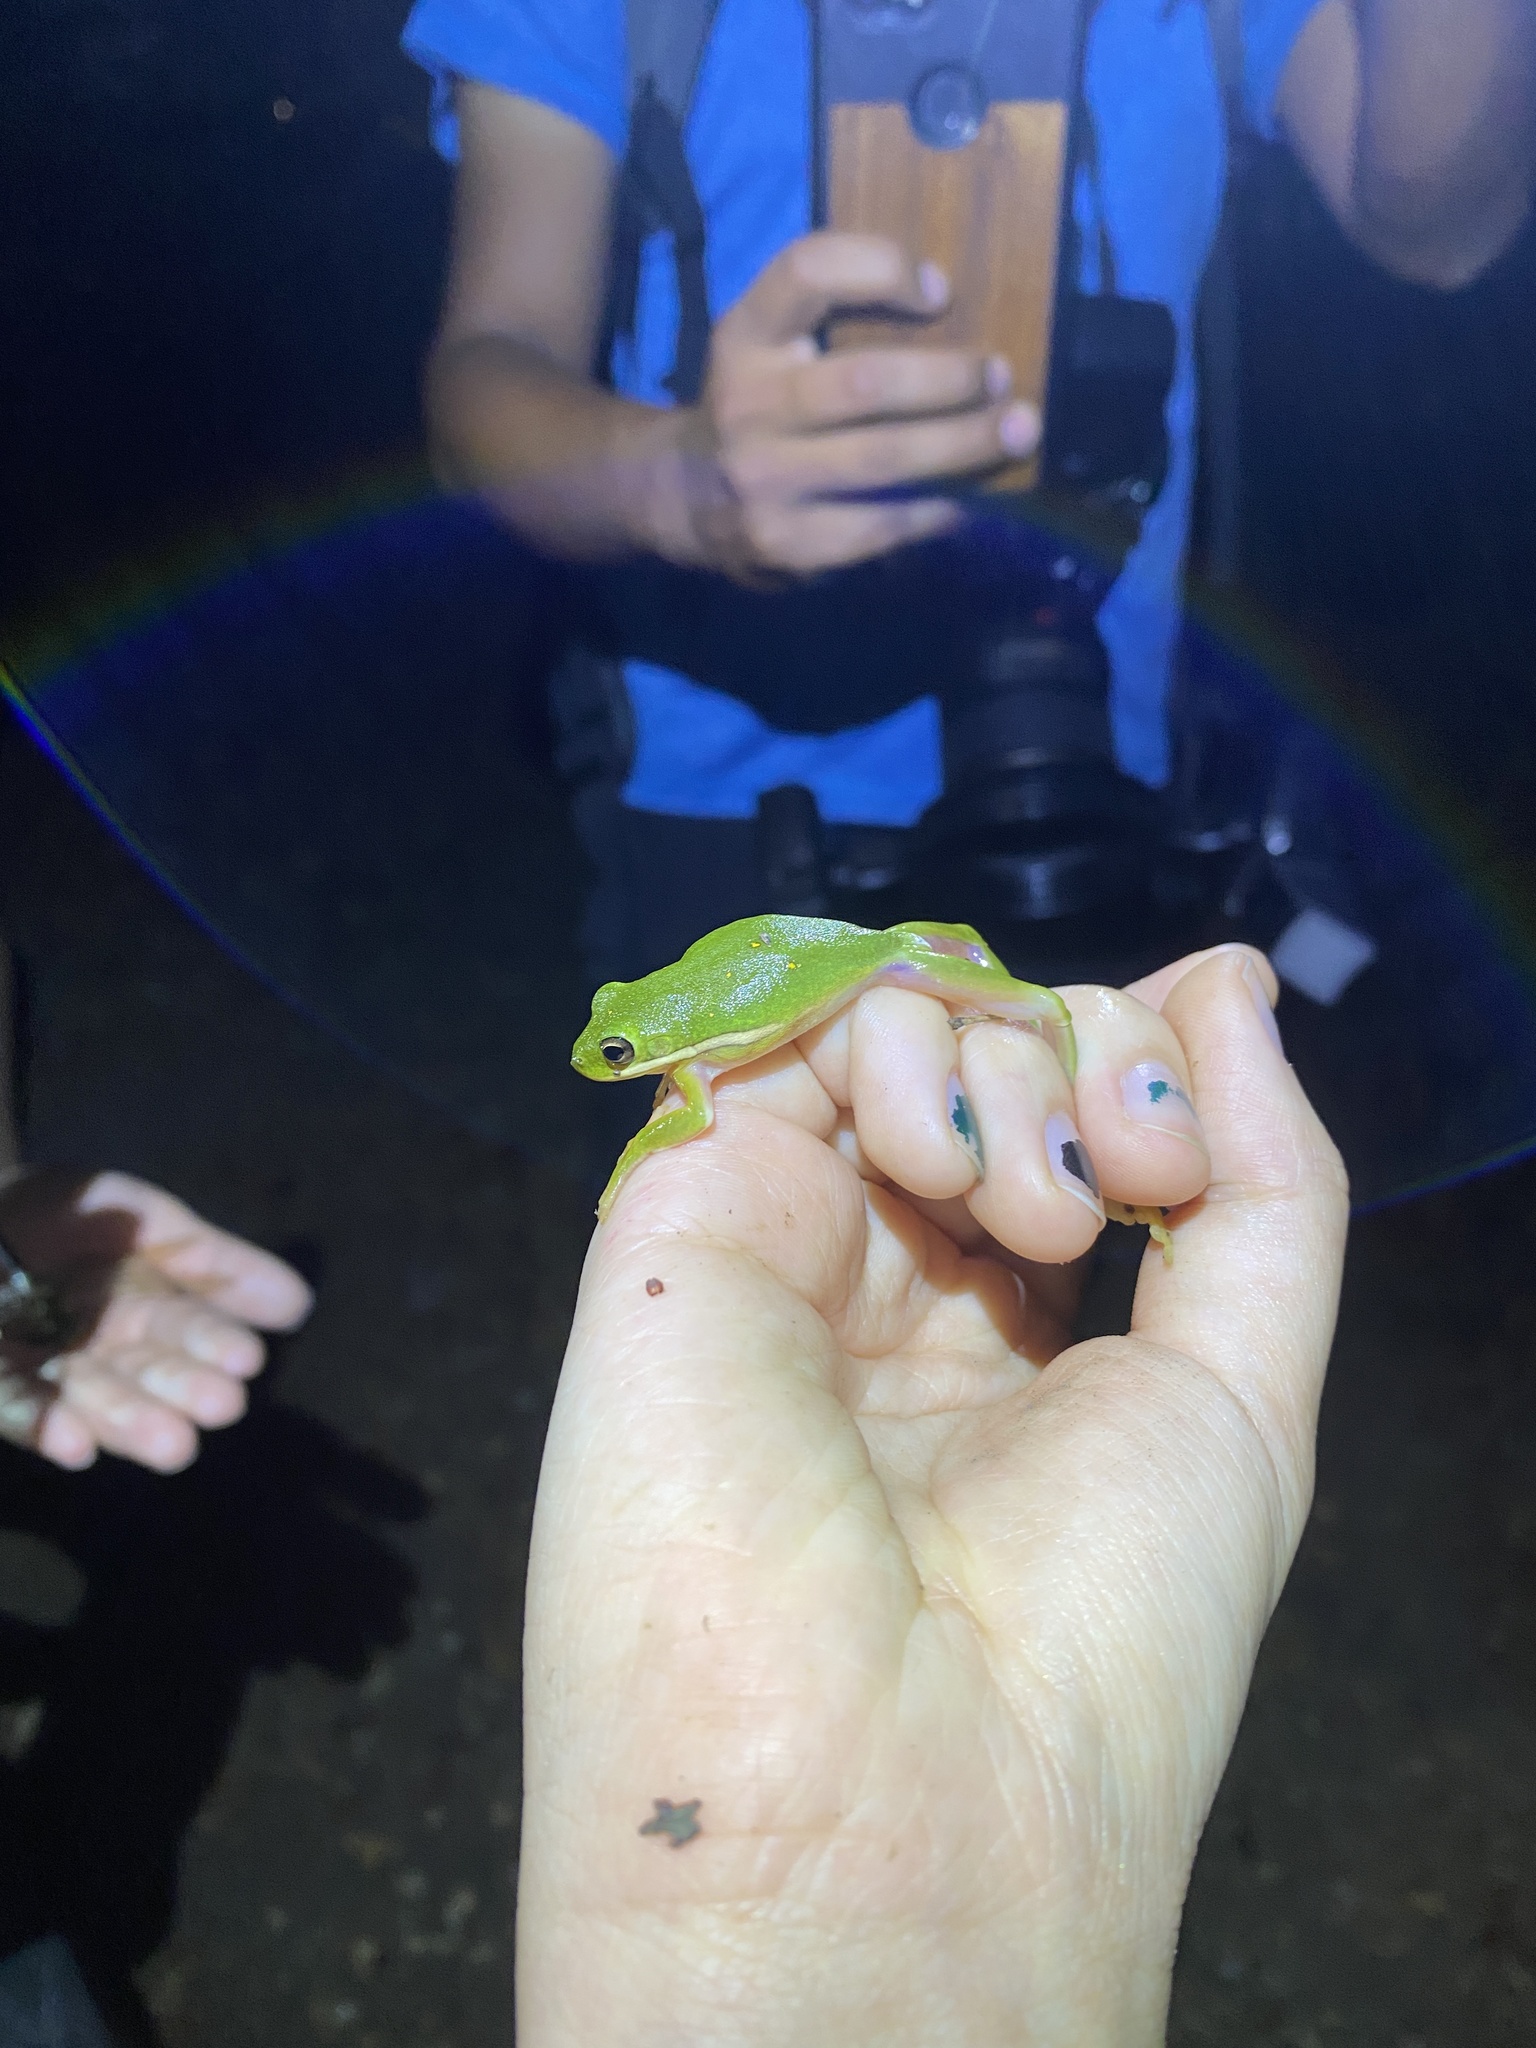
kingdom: Animalia
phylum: Chordata
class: Amphibia
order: Anura
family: Hylidae
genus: Dryophytes
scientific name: Dryophytes cinereus
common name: Green treefrog
